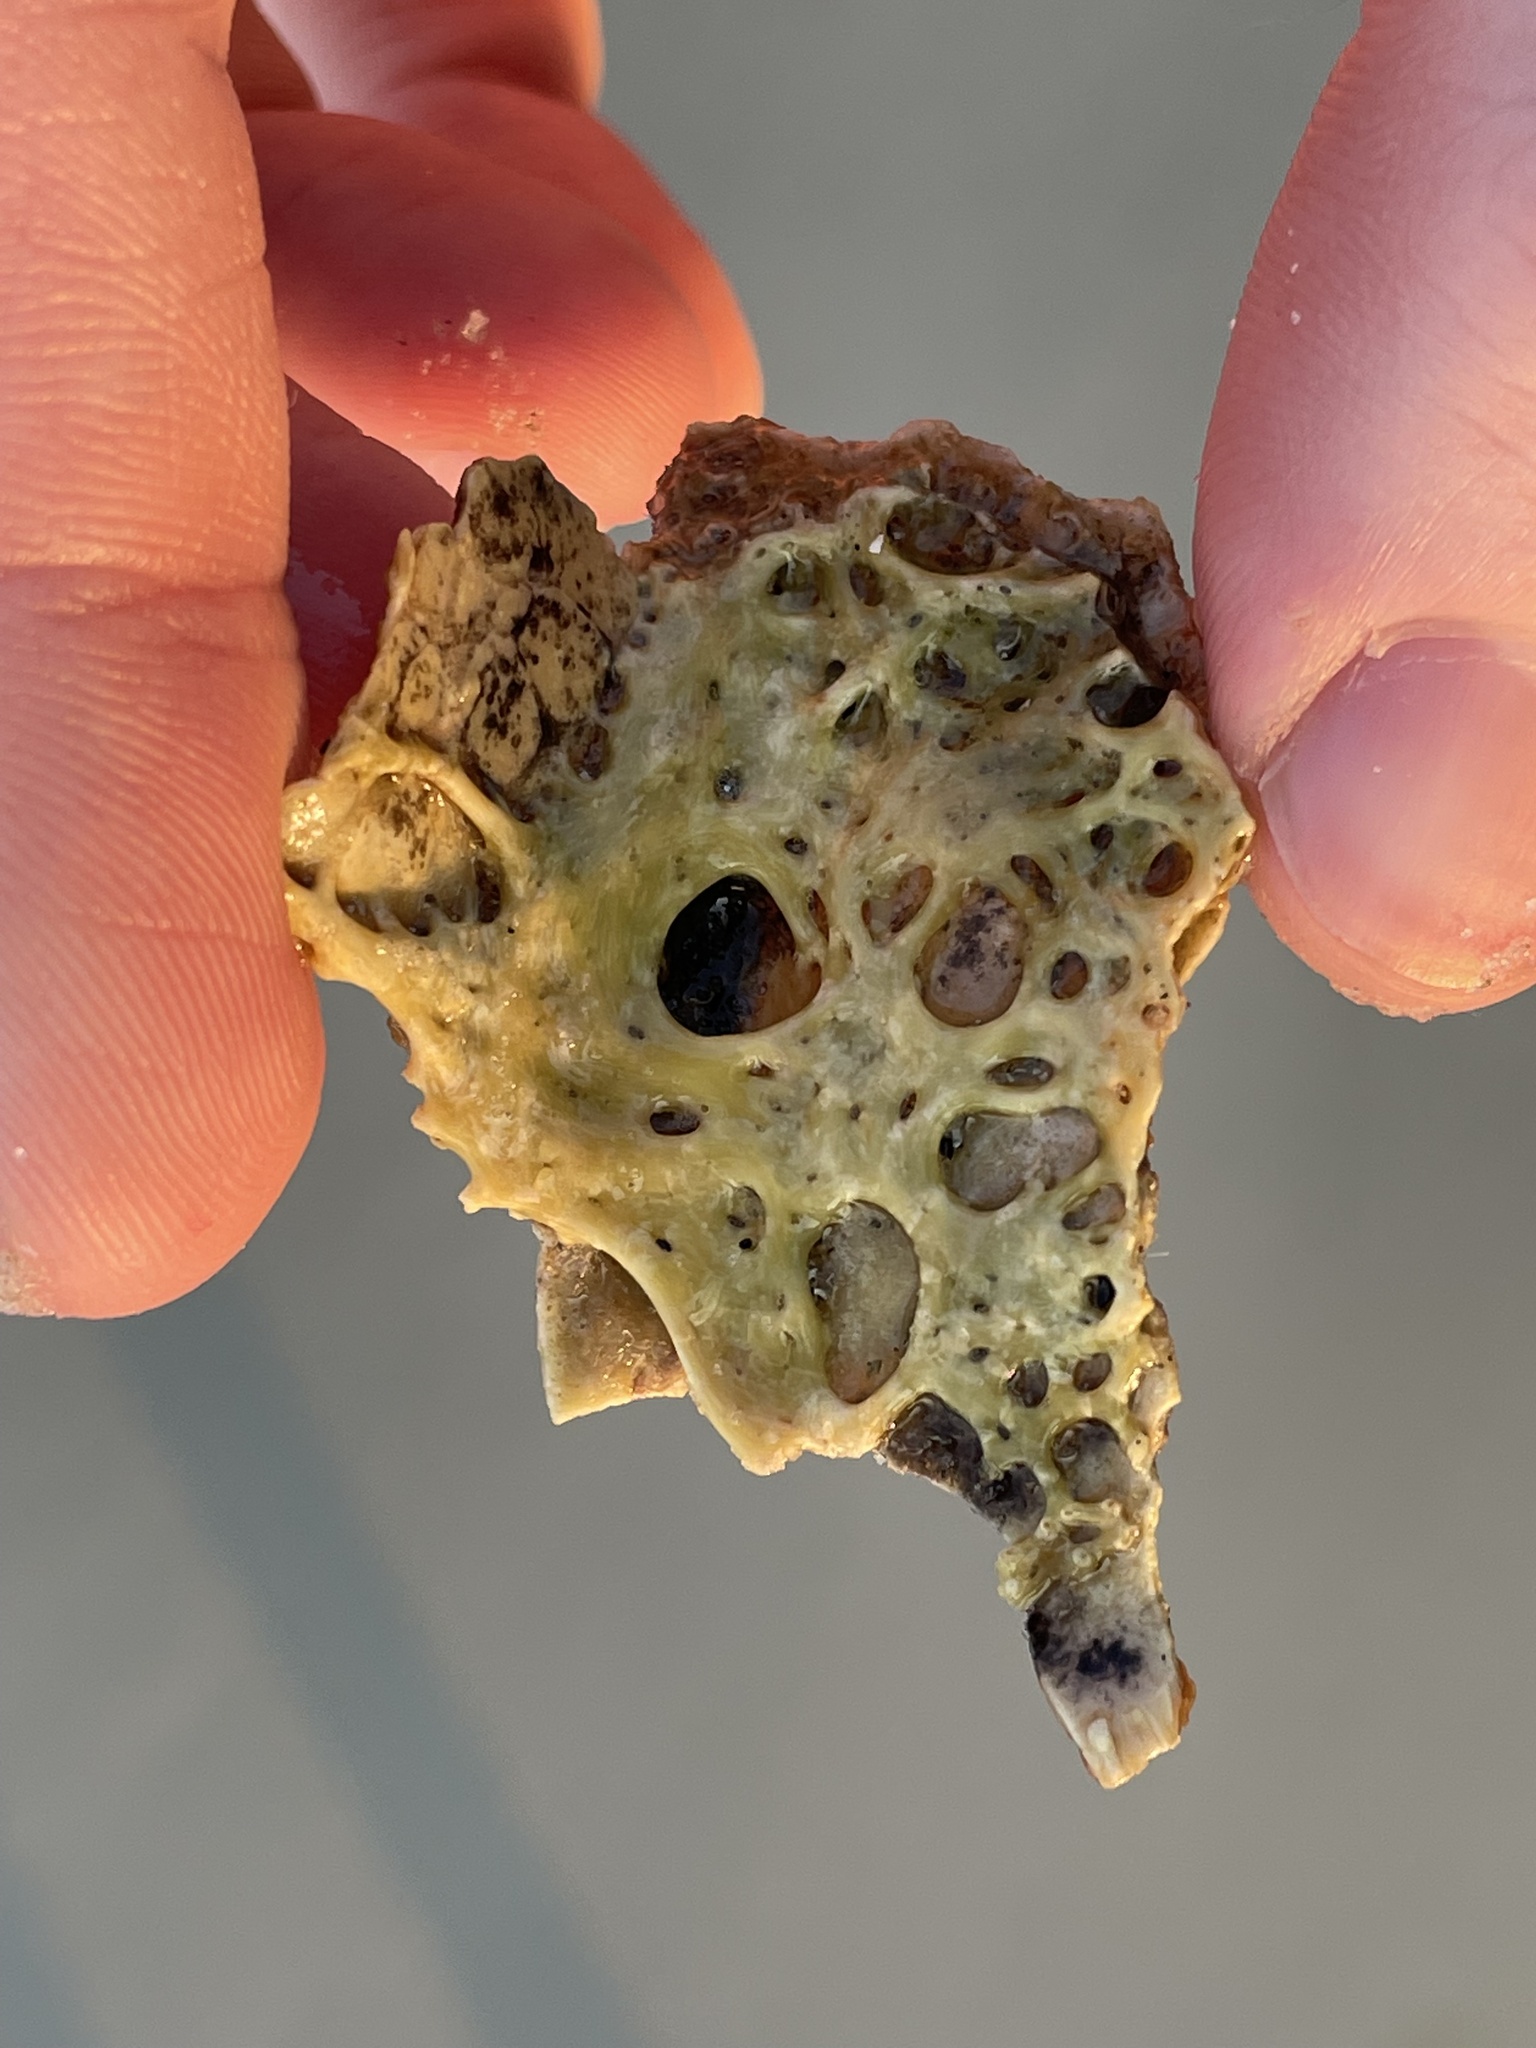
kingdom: Animalia
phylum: Arthropoda
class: Merostomata
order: Xiphosurida
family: Limulidae
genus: Limulus
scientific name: Limulus polyphemus
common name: Horseshoe crab
